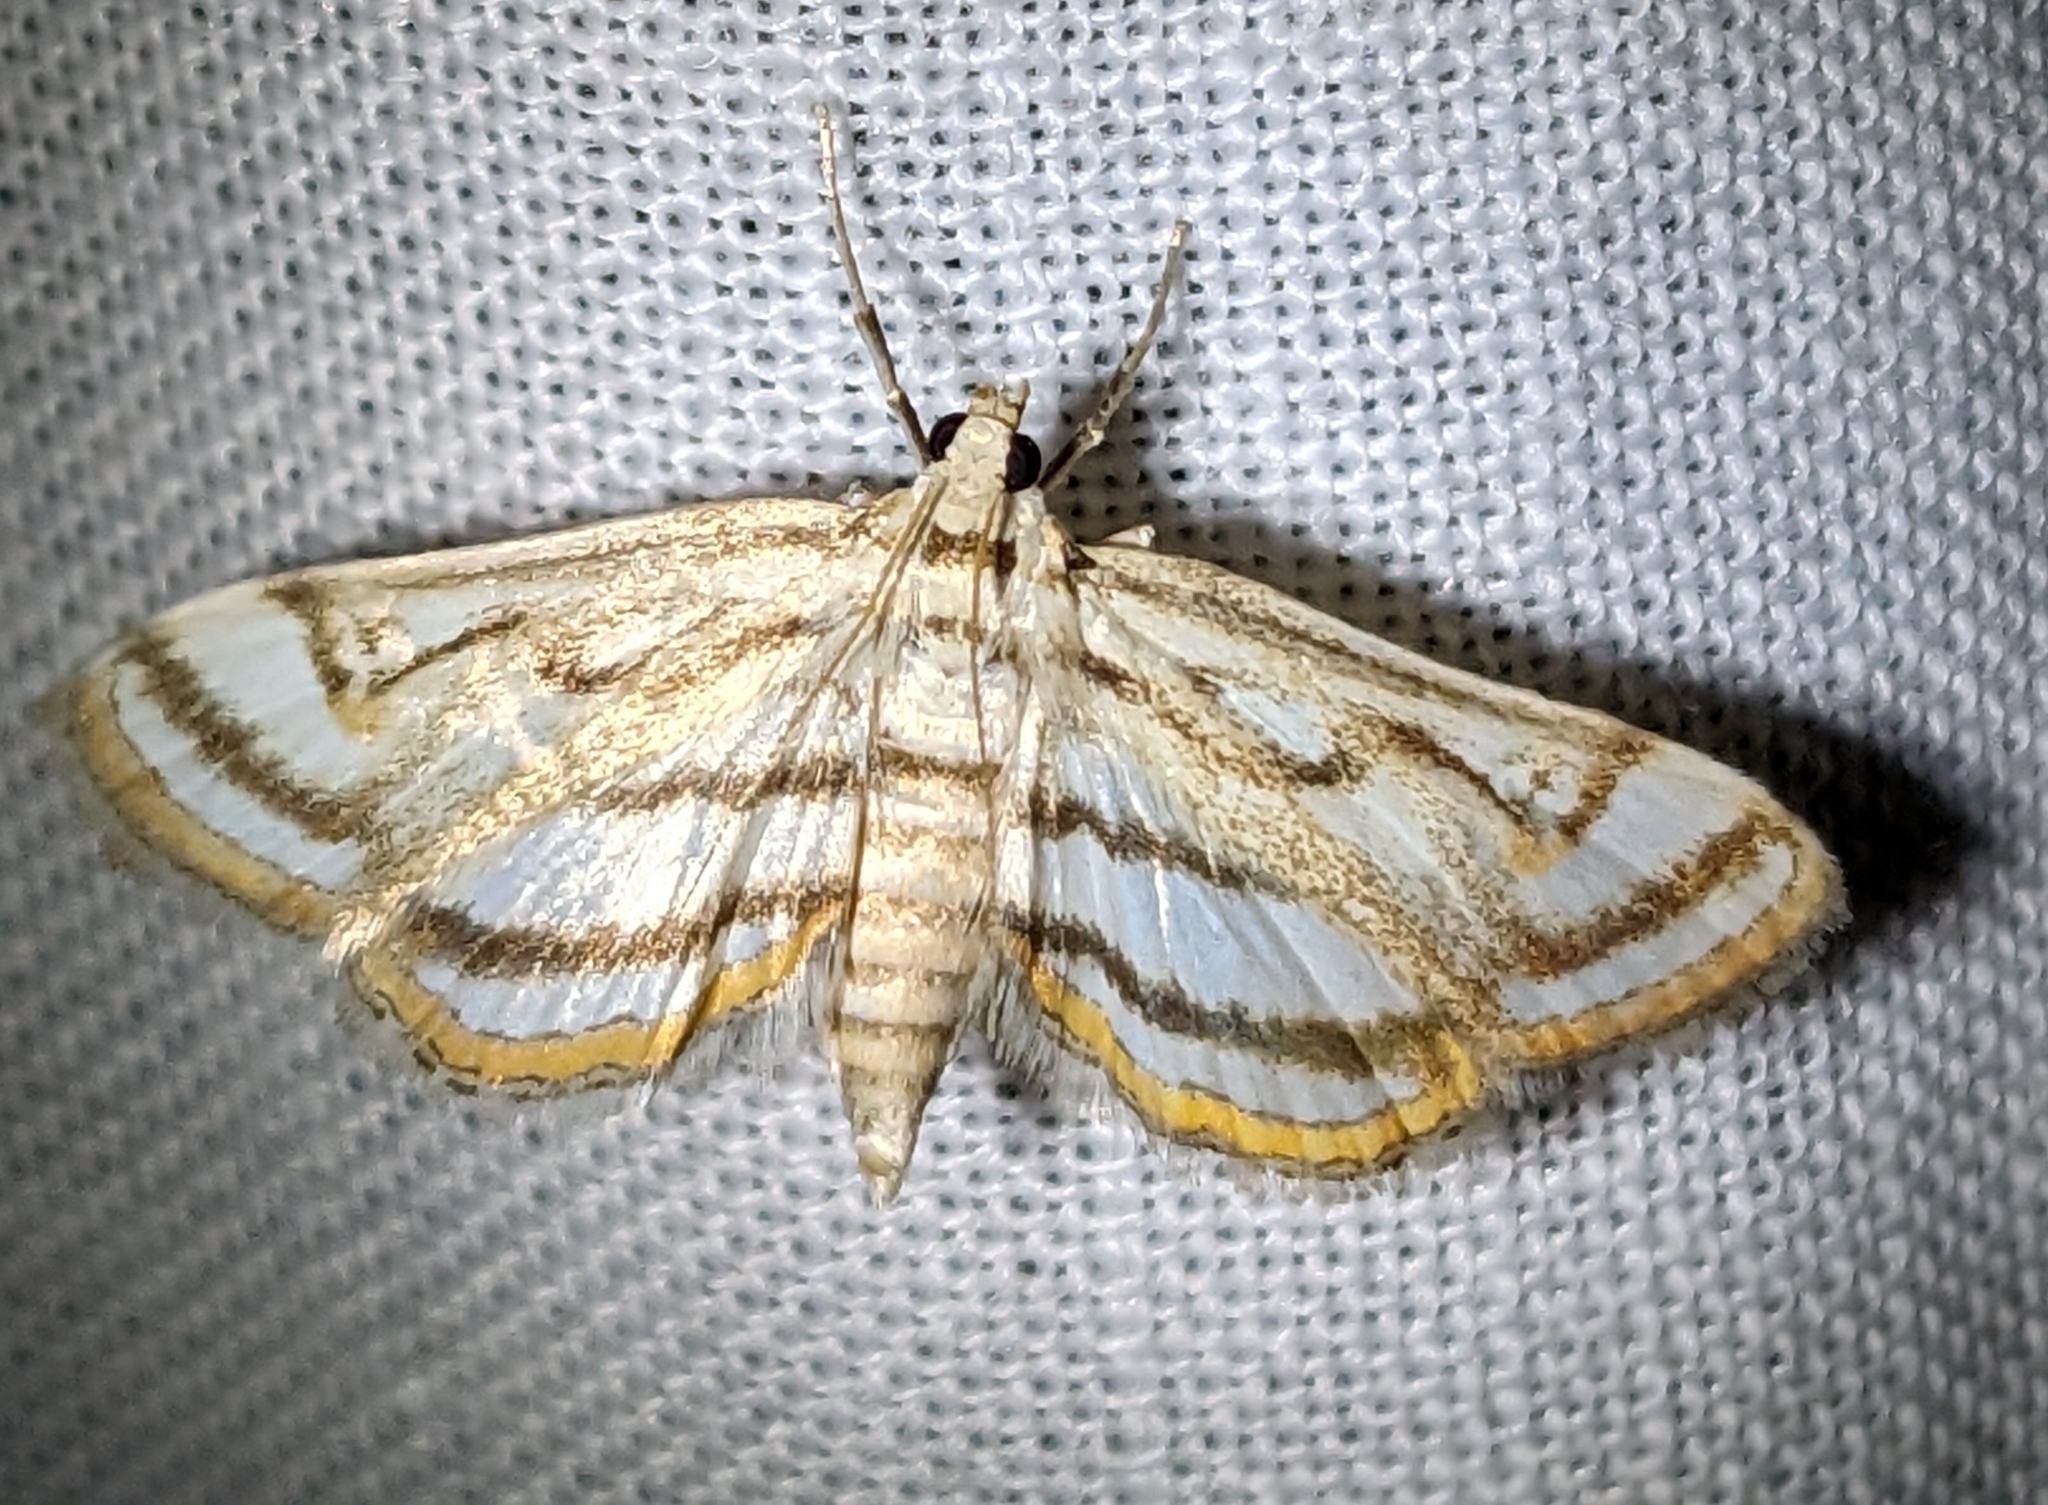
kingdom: Animalia
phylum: Arthropoda
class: Insecta
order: Lepidoptera
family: Crambidae
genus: Parapoynx
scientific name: Parapoynx badiusalis
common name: Chestnut-marked pondweed moth
